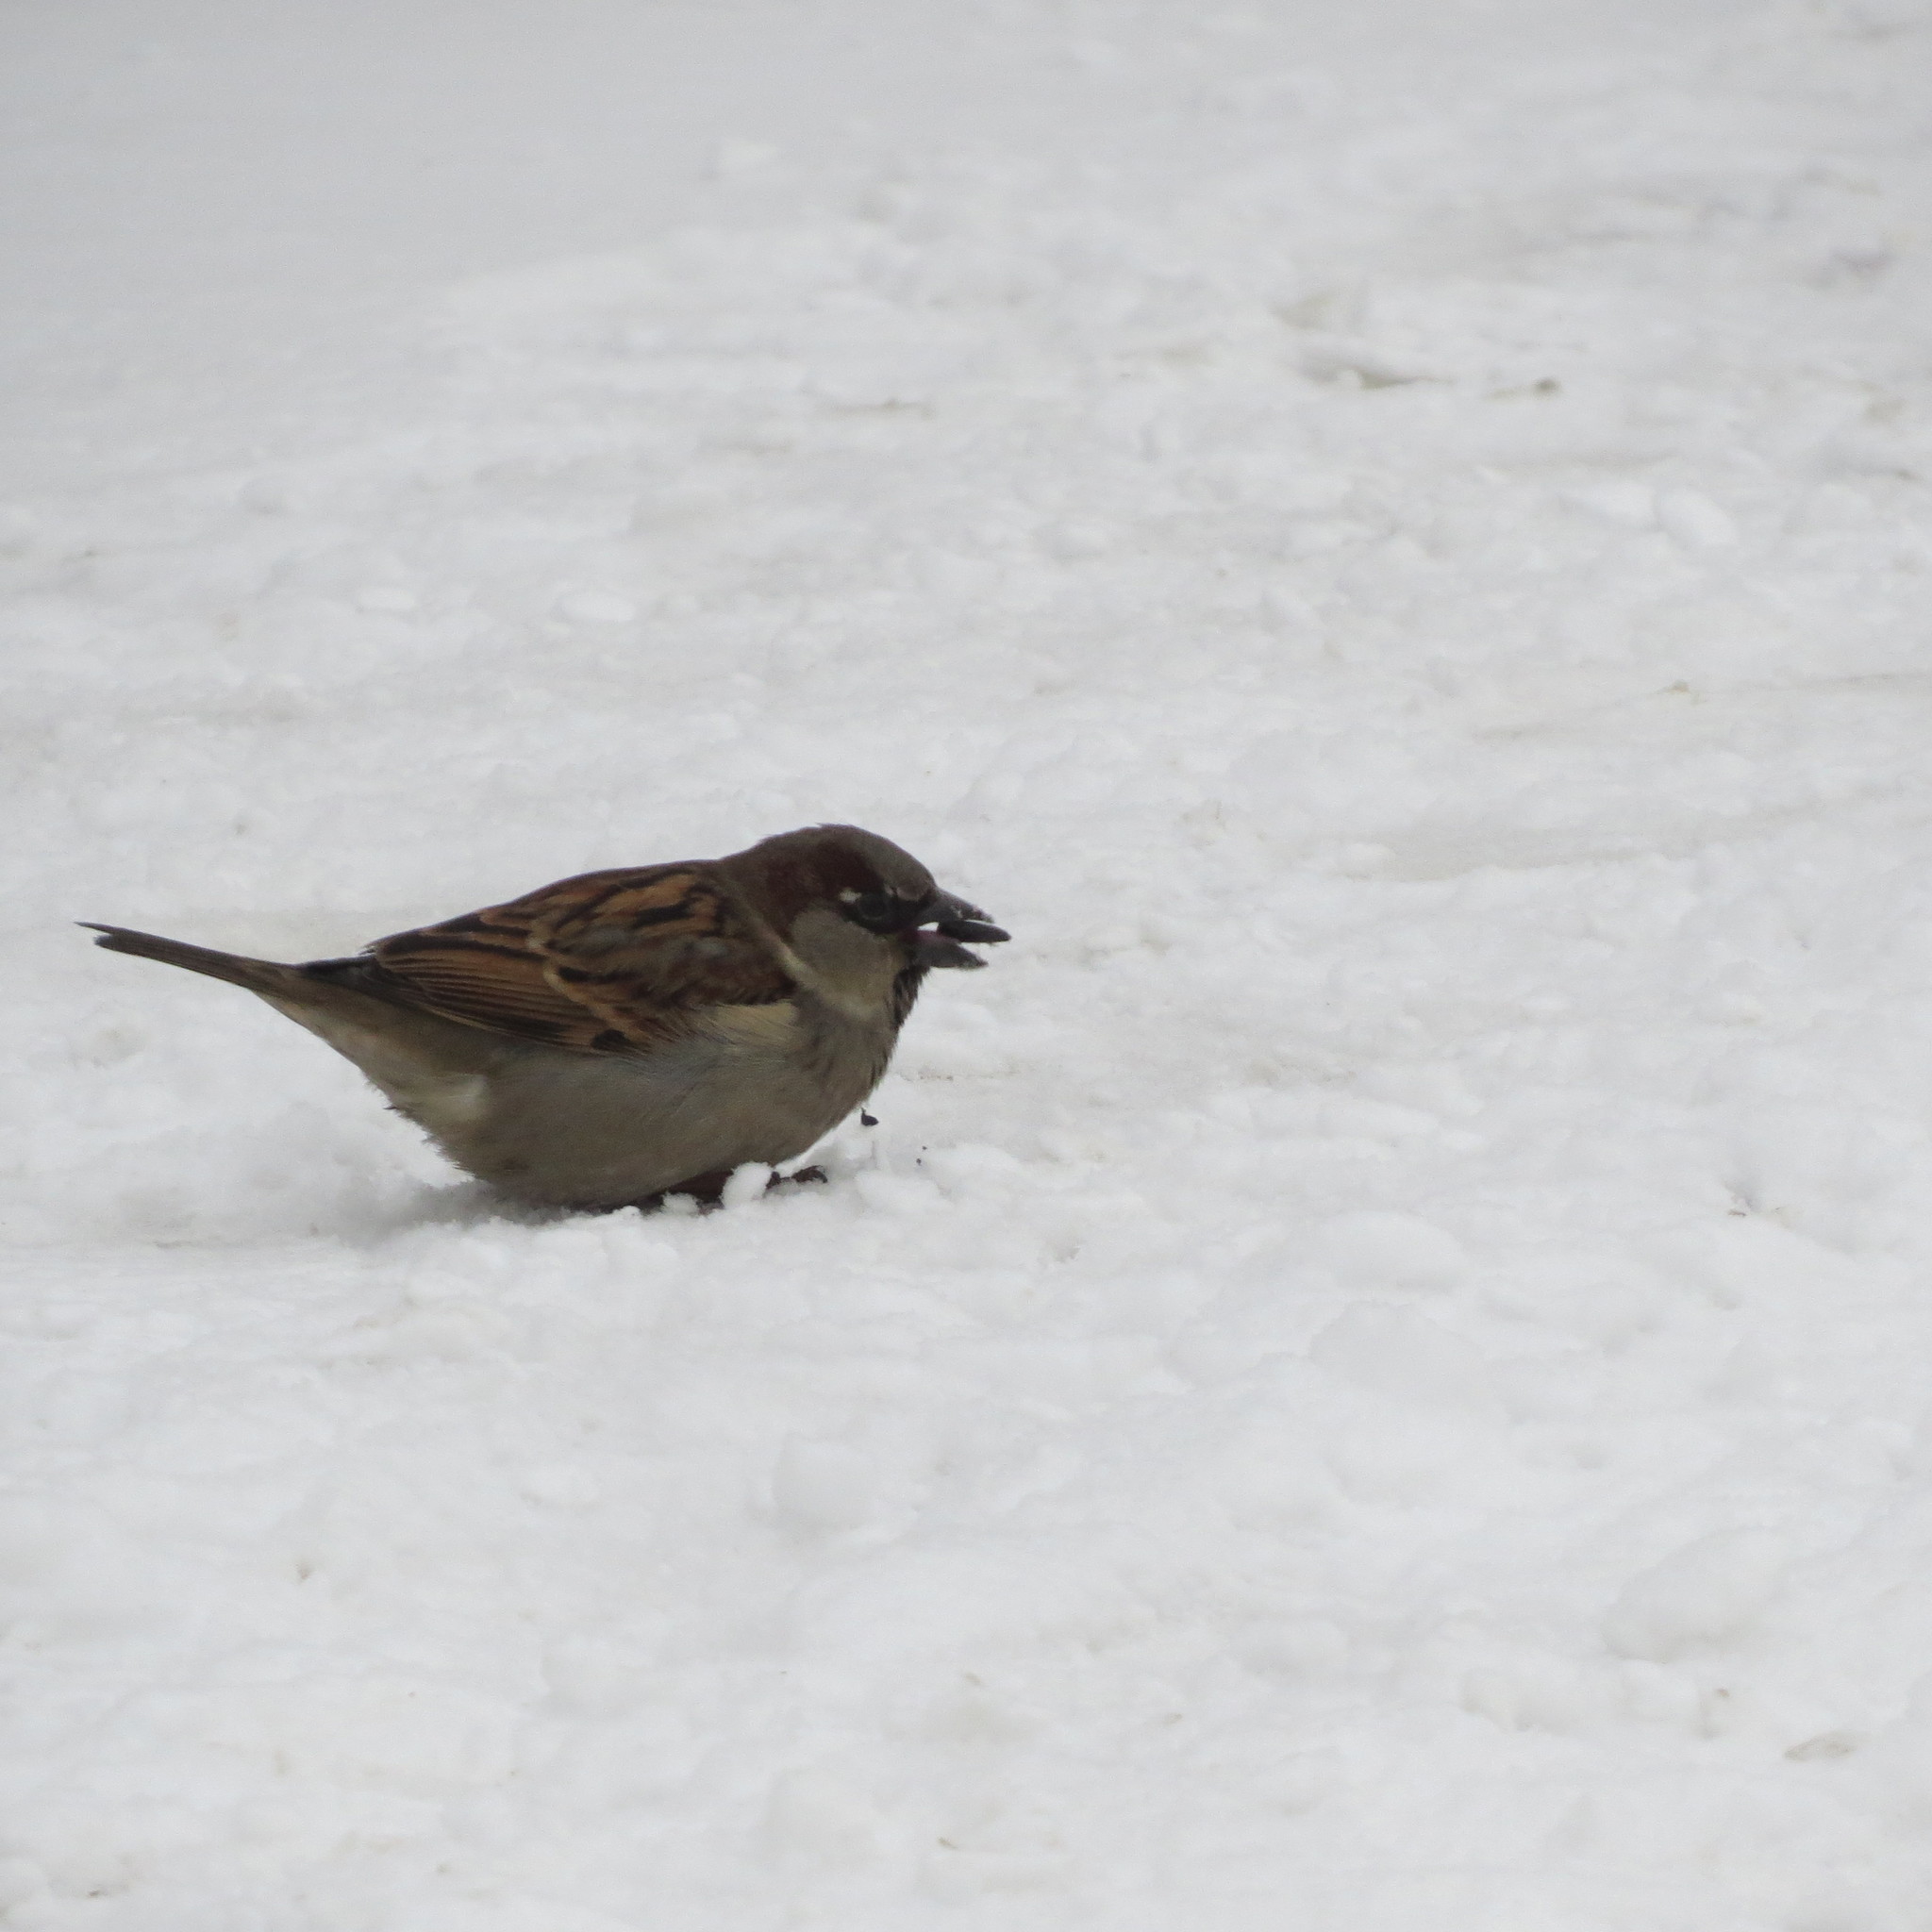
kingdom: Animalia
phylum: Chordata
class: Aves
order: Passeriformes
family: Passeridae
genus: Passer
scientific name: Passer domesticus
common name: House sparrow
